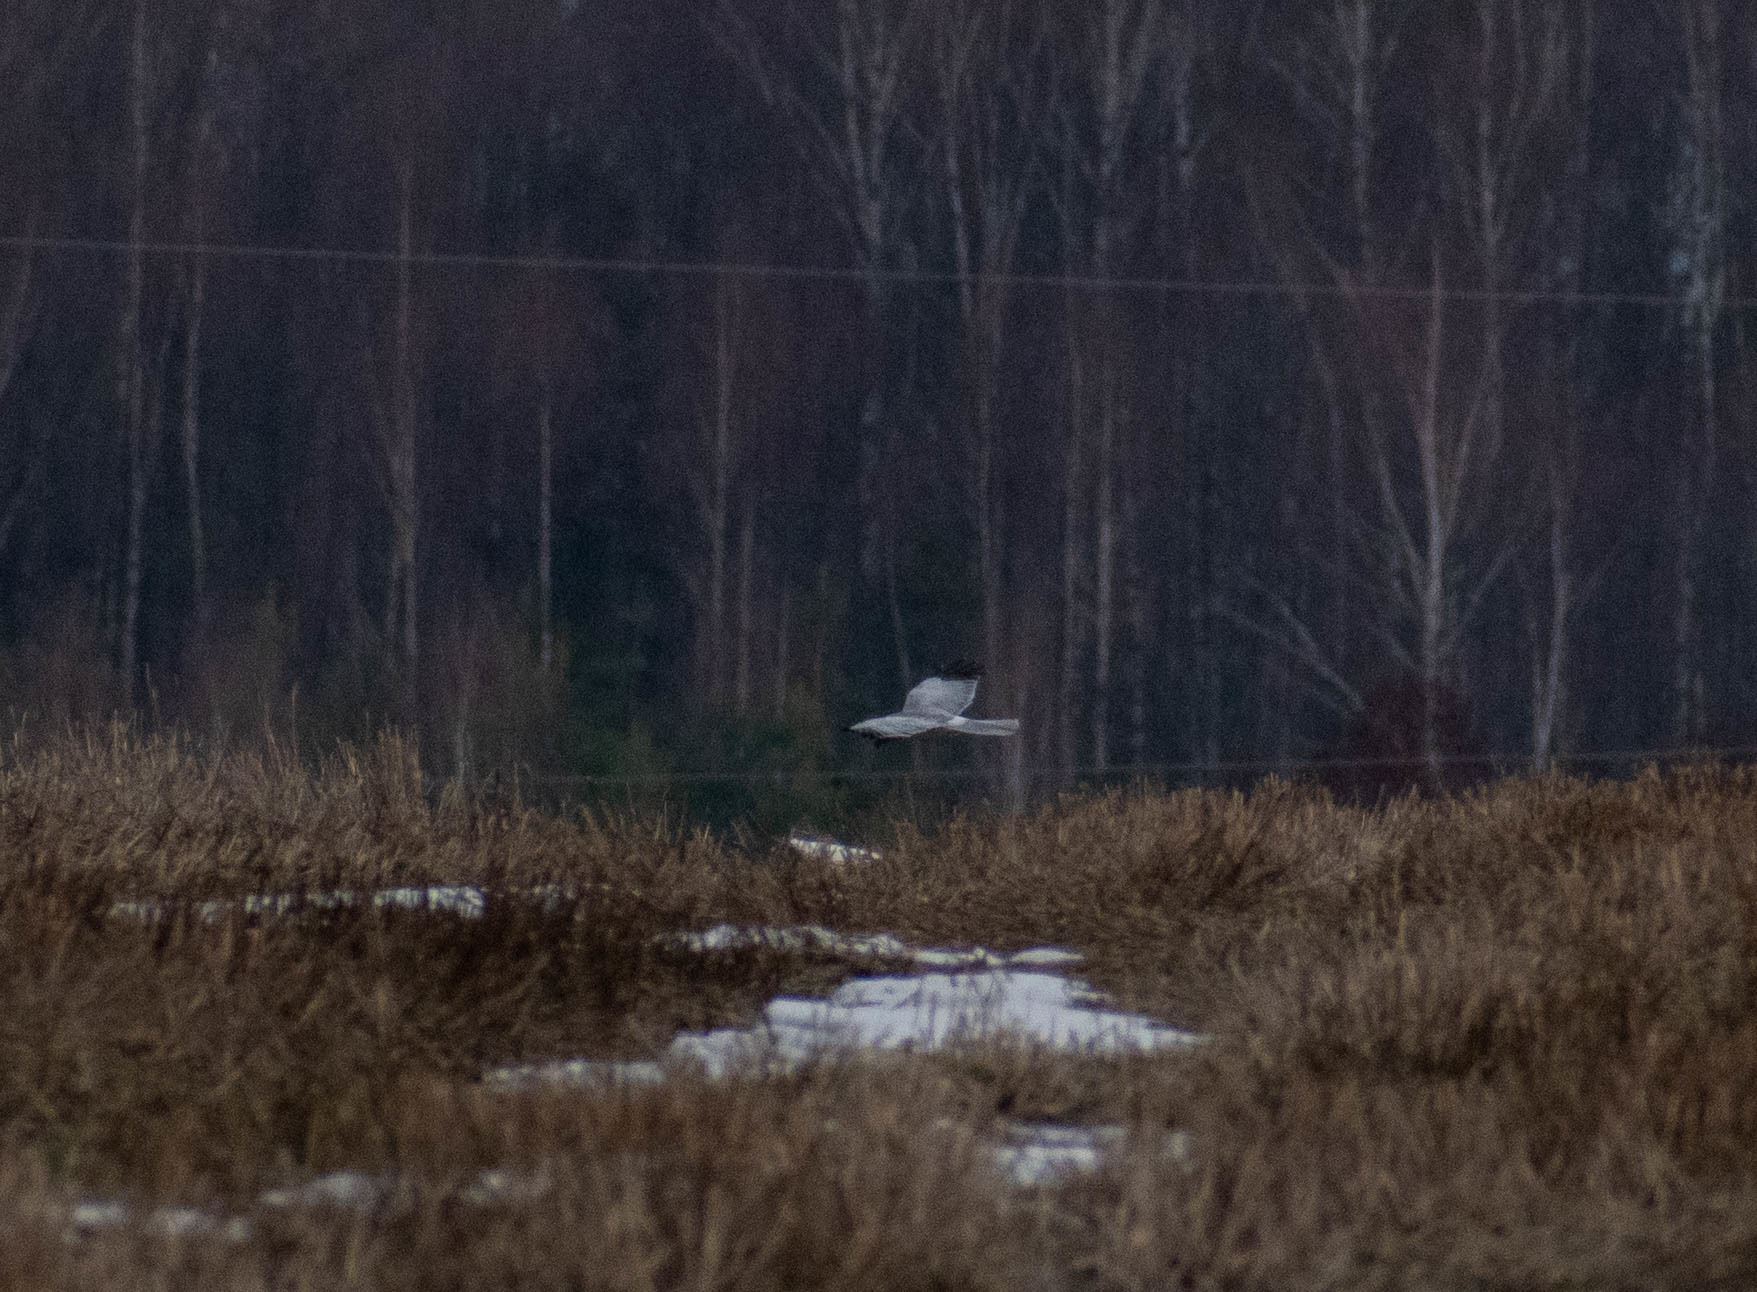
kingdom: Animalia
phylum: Chordata
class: Aves
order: Accipitriformes
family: Accipitridae
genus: Circus
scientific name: Circus cyaneus
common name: Hen harrier
